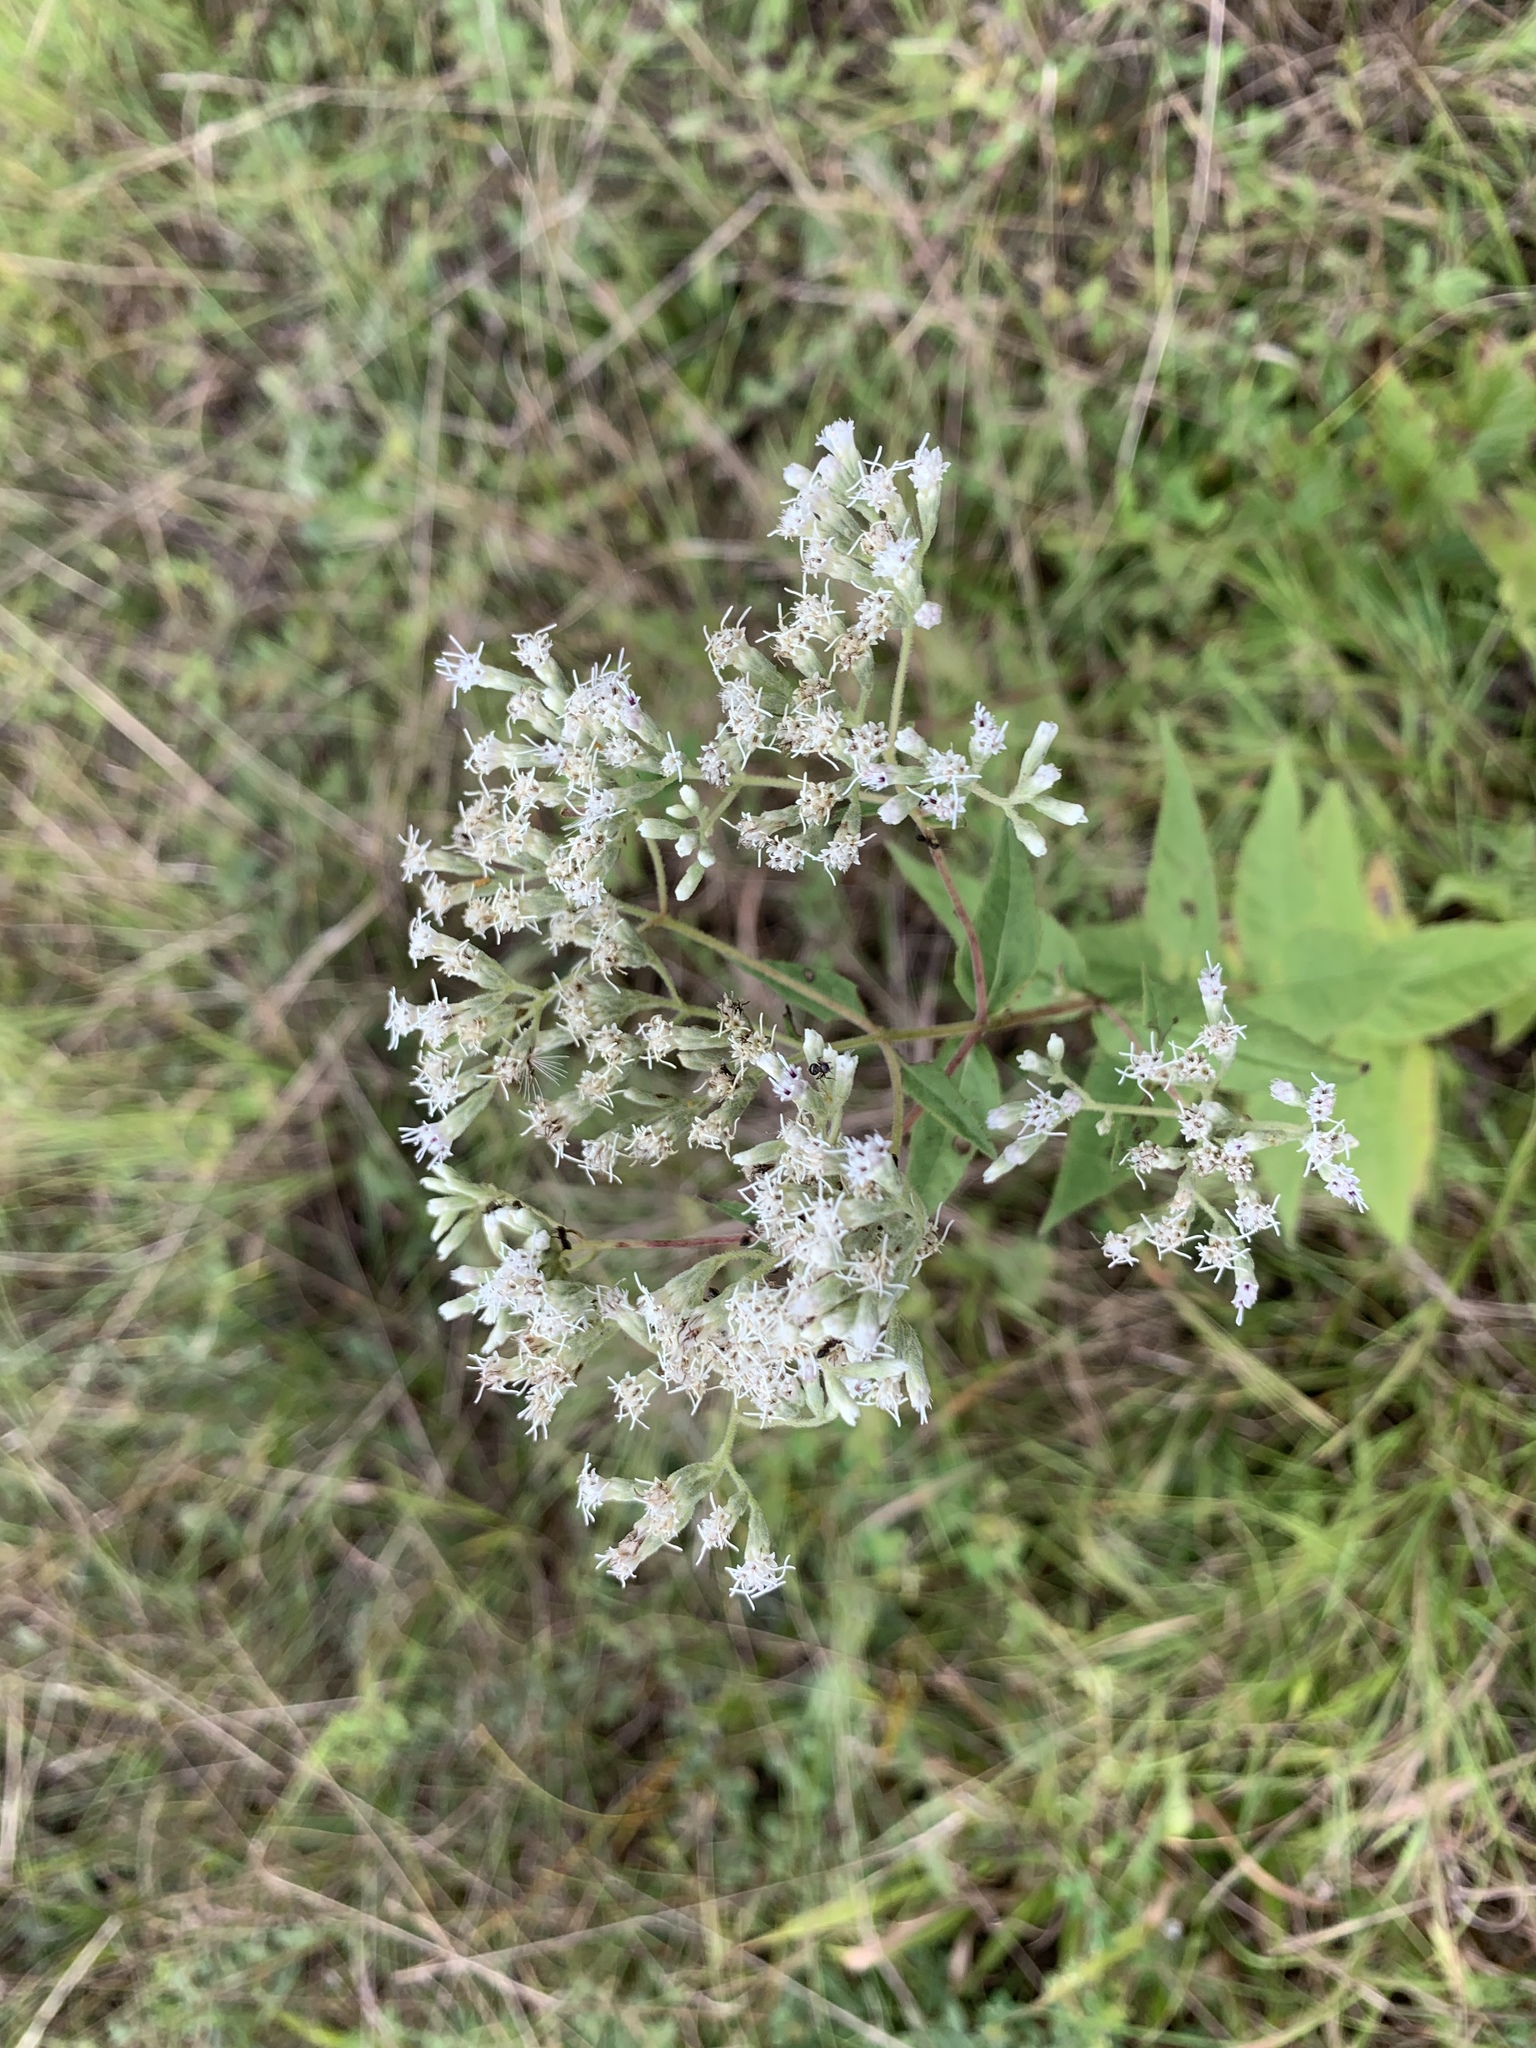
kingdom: Plantae
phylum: Tracheophyta
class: Magnoliopsida
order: Asterales
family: Asteraceae
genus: Eupatorium
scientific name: Eupatorium godfreyanum
